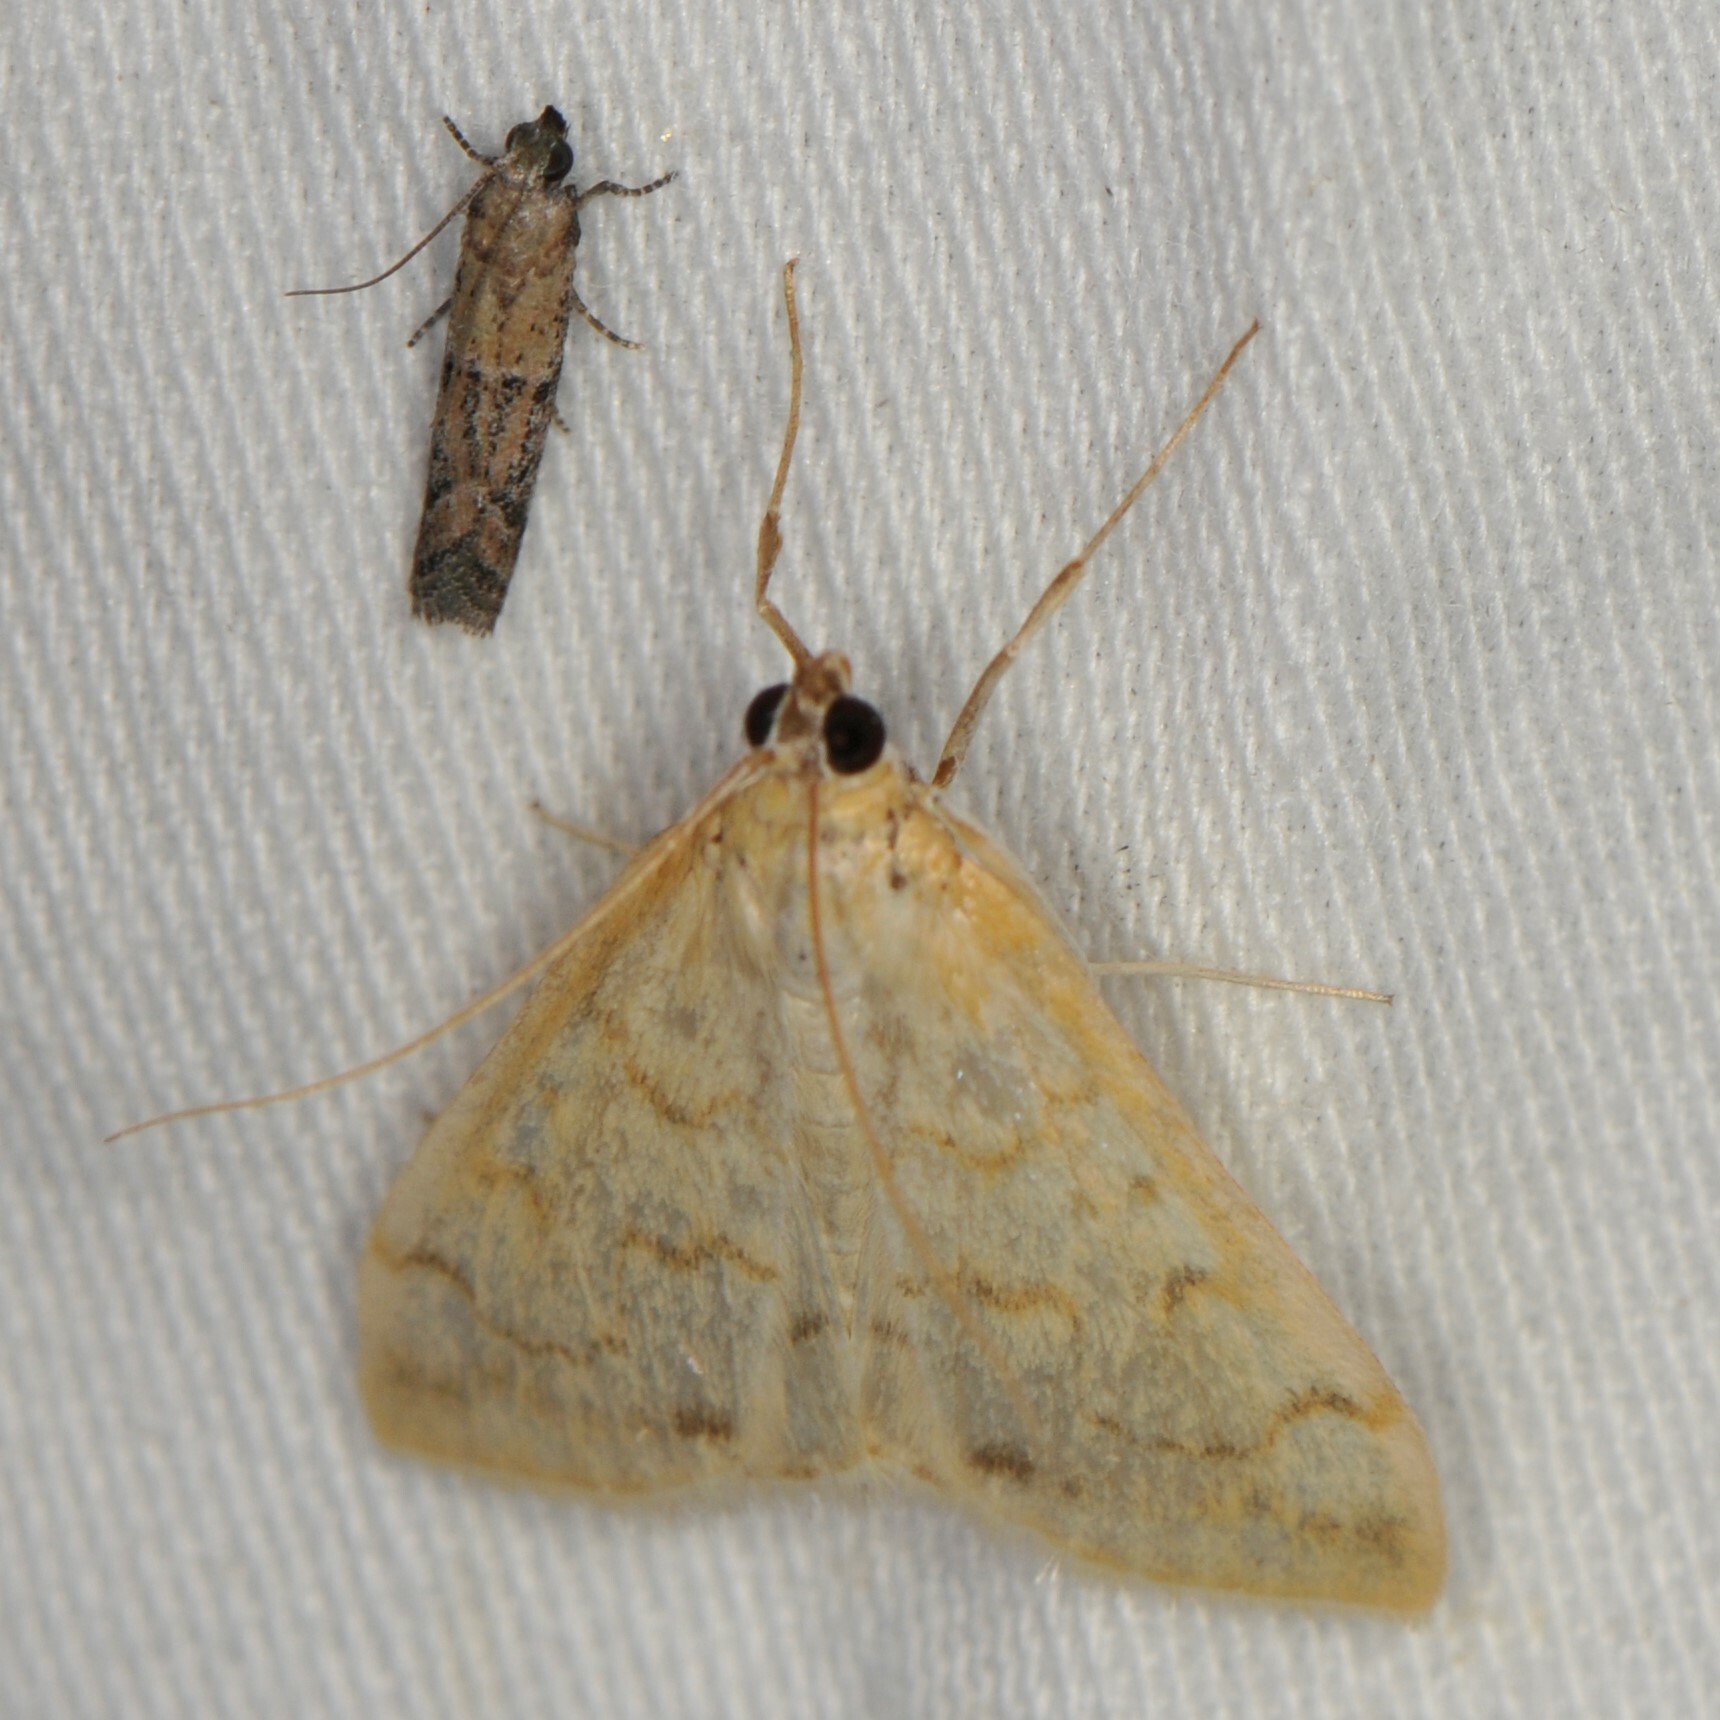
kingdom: Animalia
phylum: Arthropoda
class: Insecta
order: Lepidoptera
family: Crambidae
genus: Hahncappsia
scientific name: Hahncappsia pergilvalis
